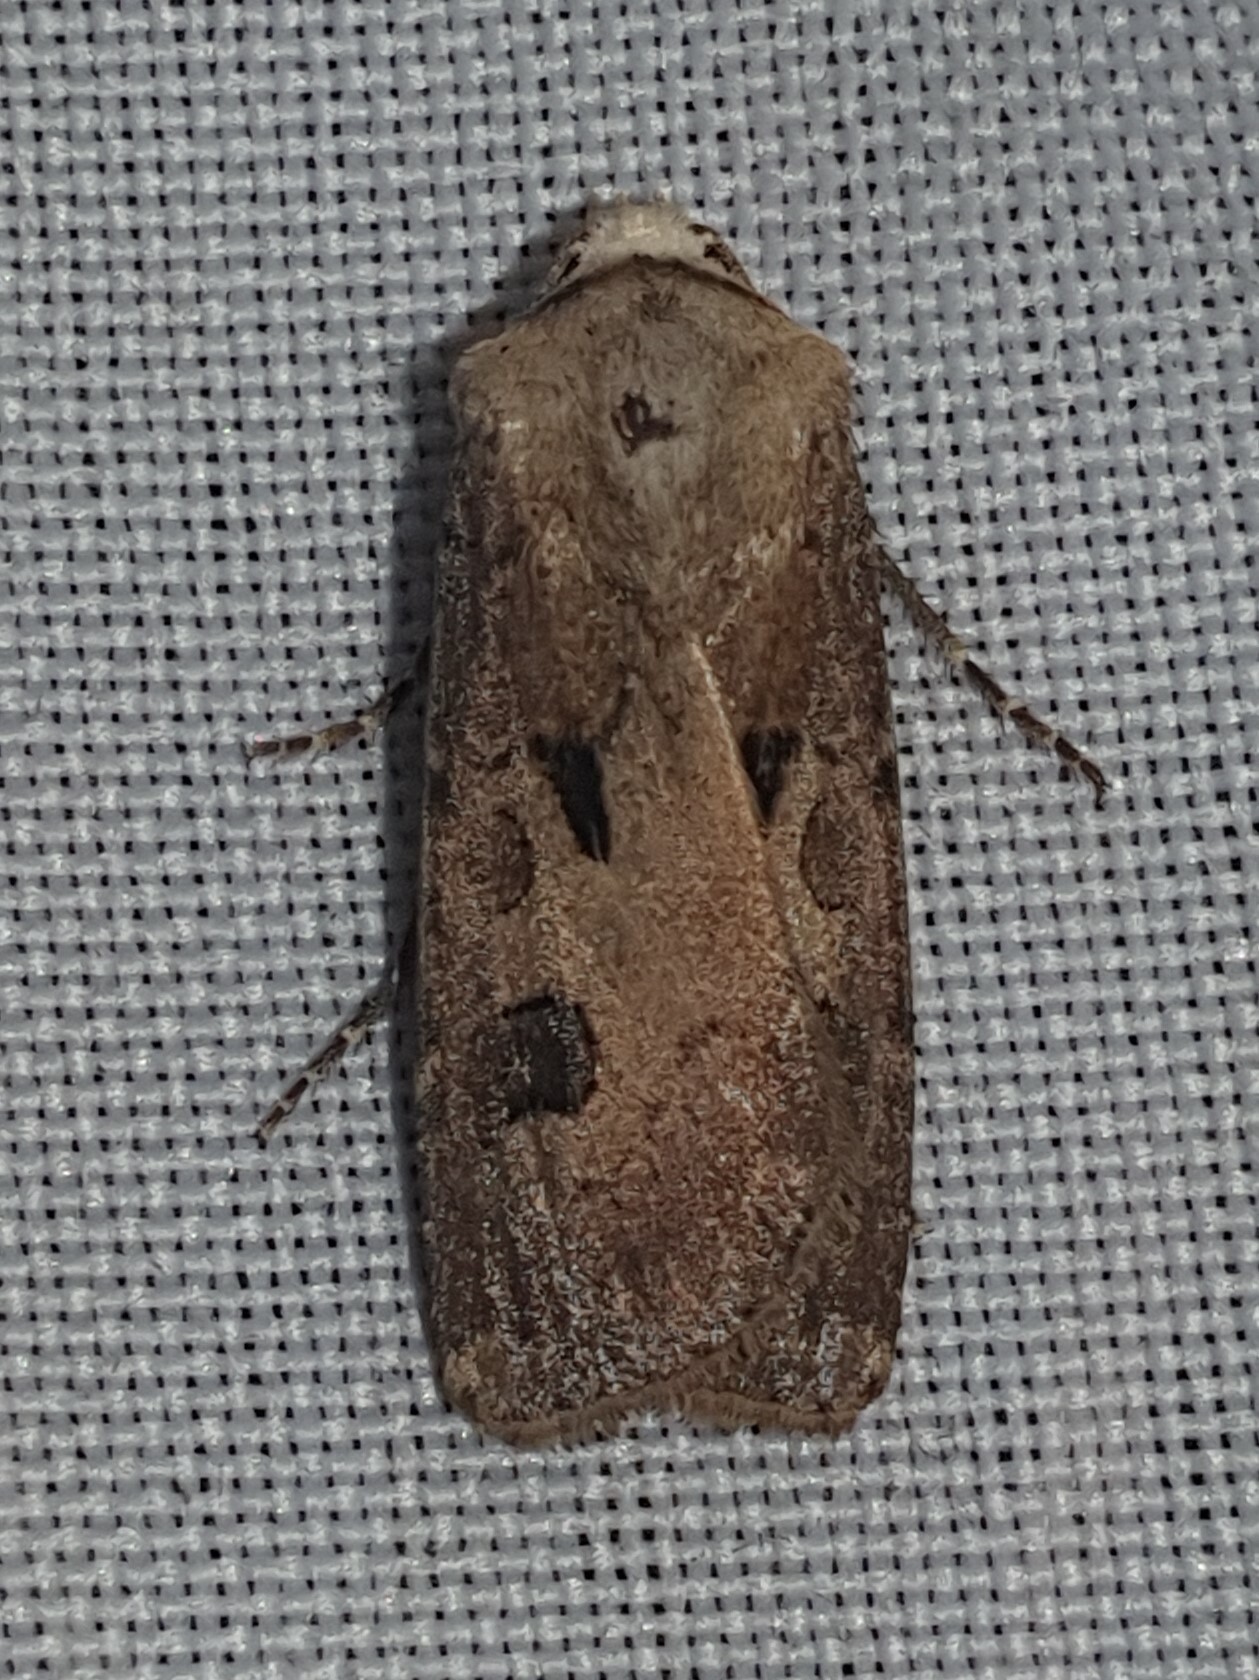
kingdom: Animalia
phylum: Arthropoda
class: Insecta
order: Lepidoptera
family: Noctuidae
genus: Agrotis
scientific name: Agrotis exclamationis
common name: Heart and dart
